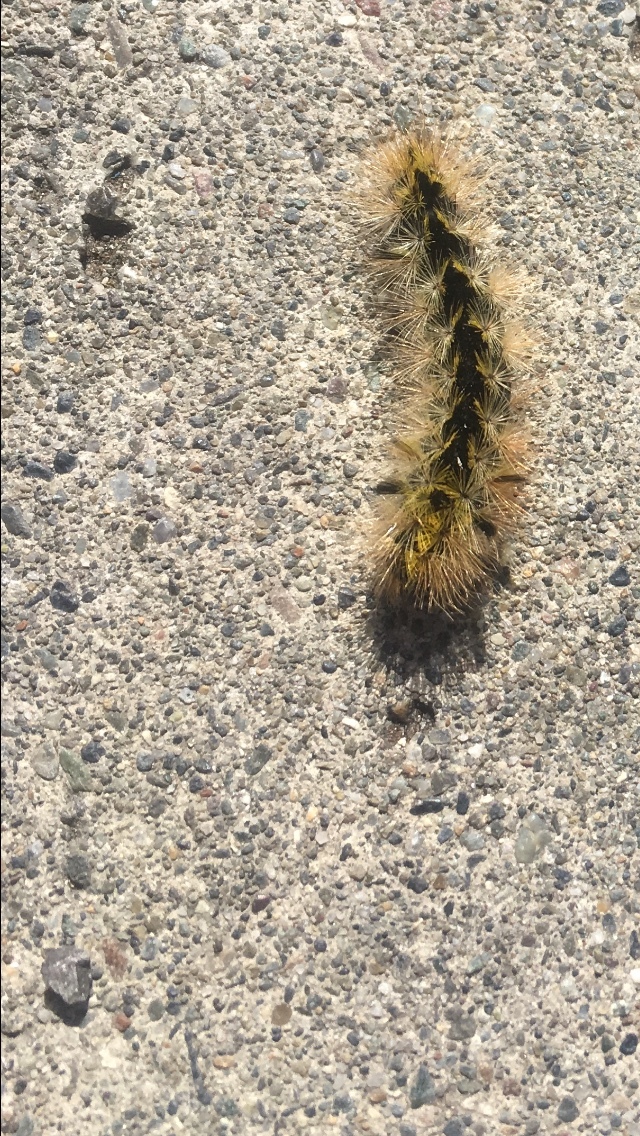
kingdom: Animalia
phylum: Arthropoda
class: Insecta
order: Lepidoptera
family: Erebidae
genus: Lophocampa
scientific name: Lophocampa argentata
